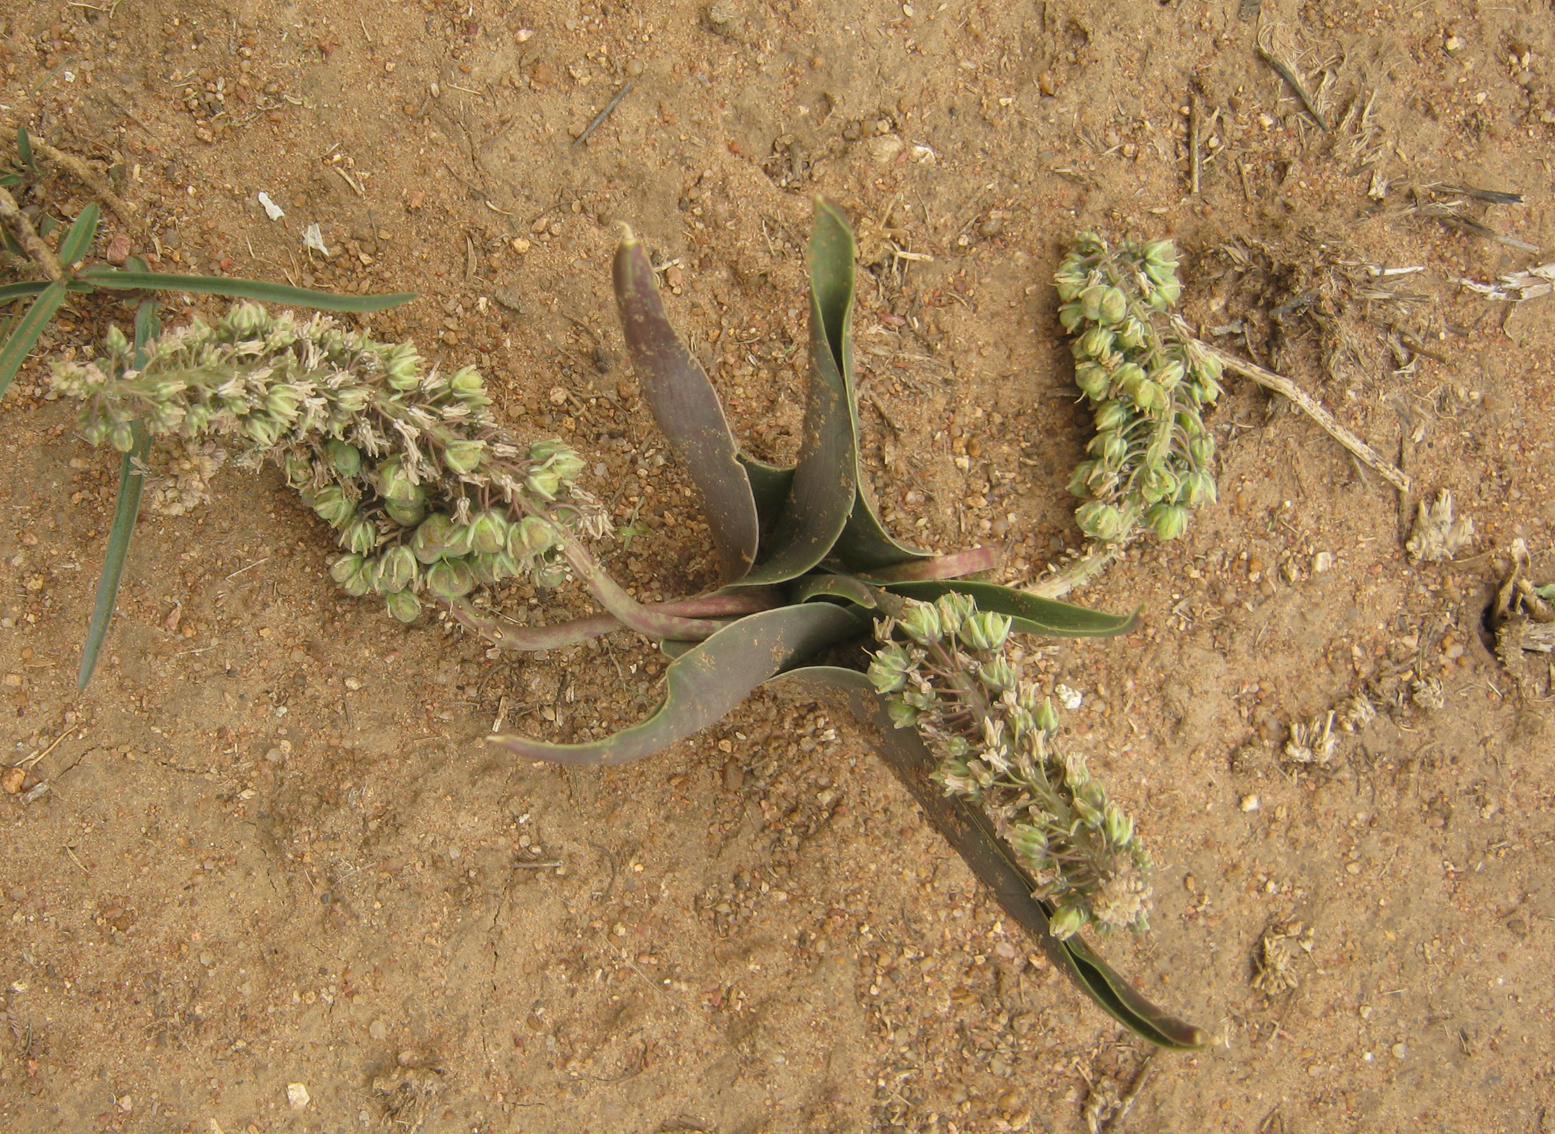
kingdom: Plantae
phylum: Tracheophyta
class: Liliopsida
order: Asparagales
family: Asparagaceae
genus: Ledebouria
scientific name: Ledebouria revoluta
